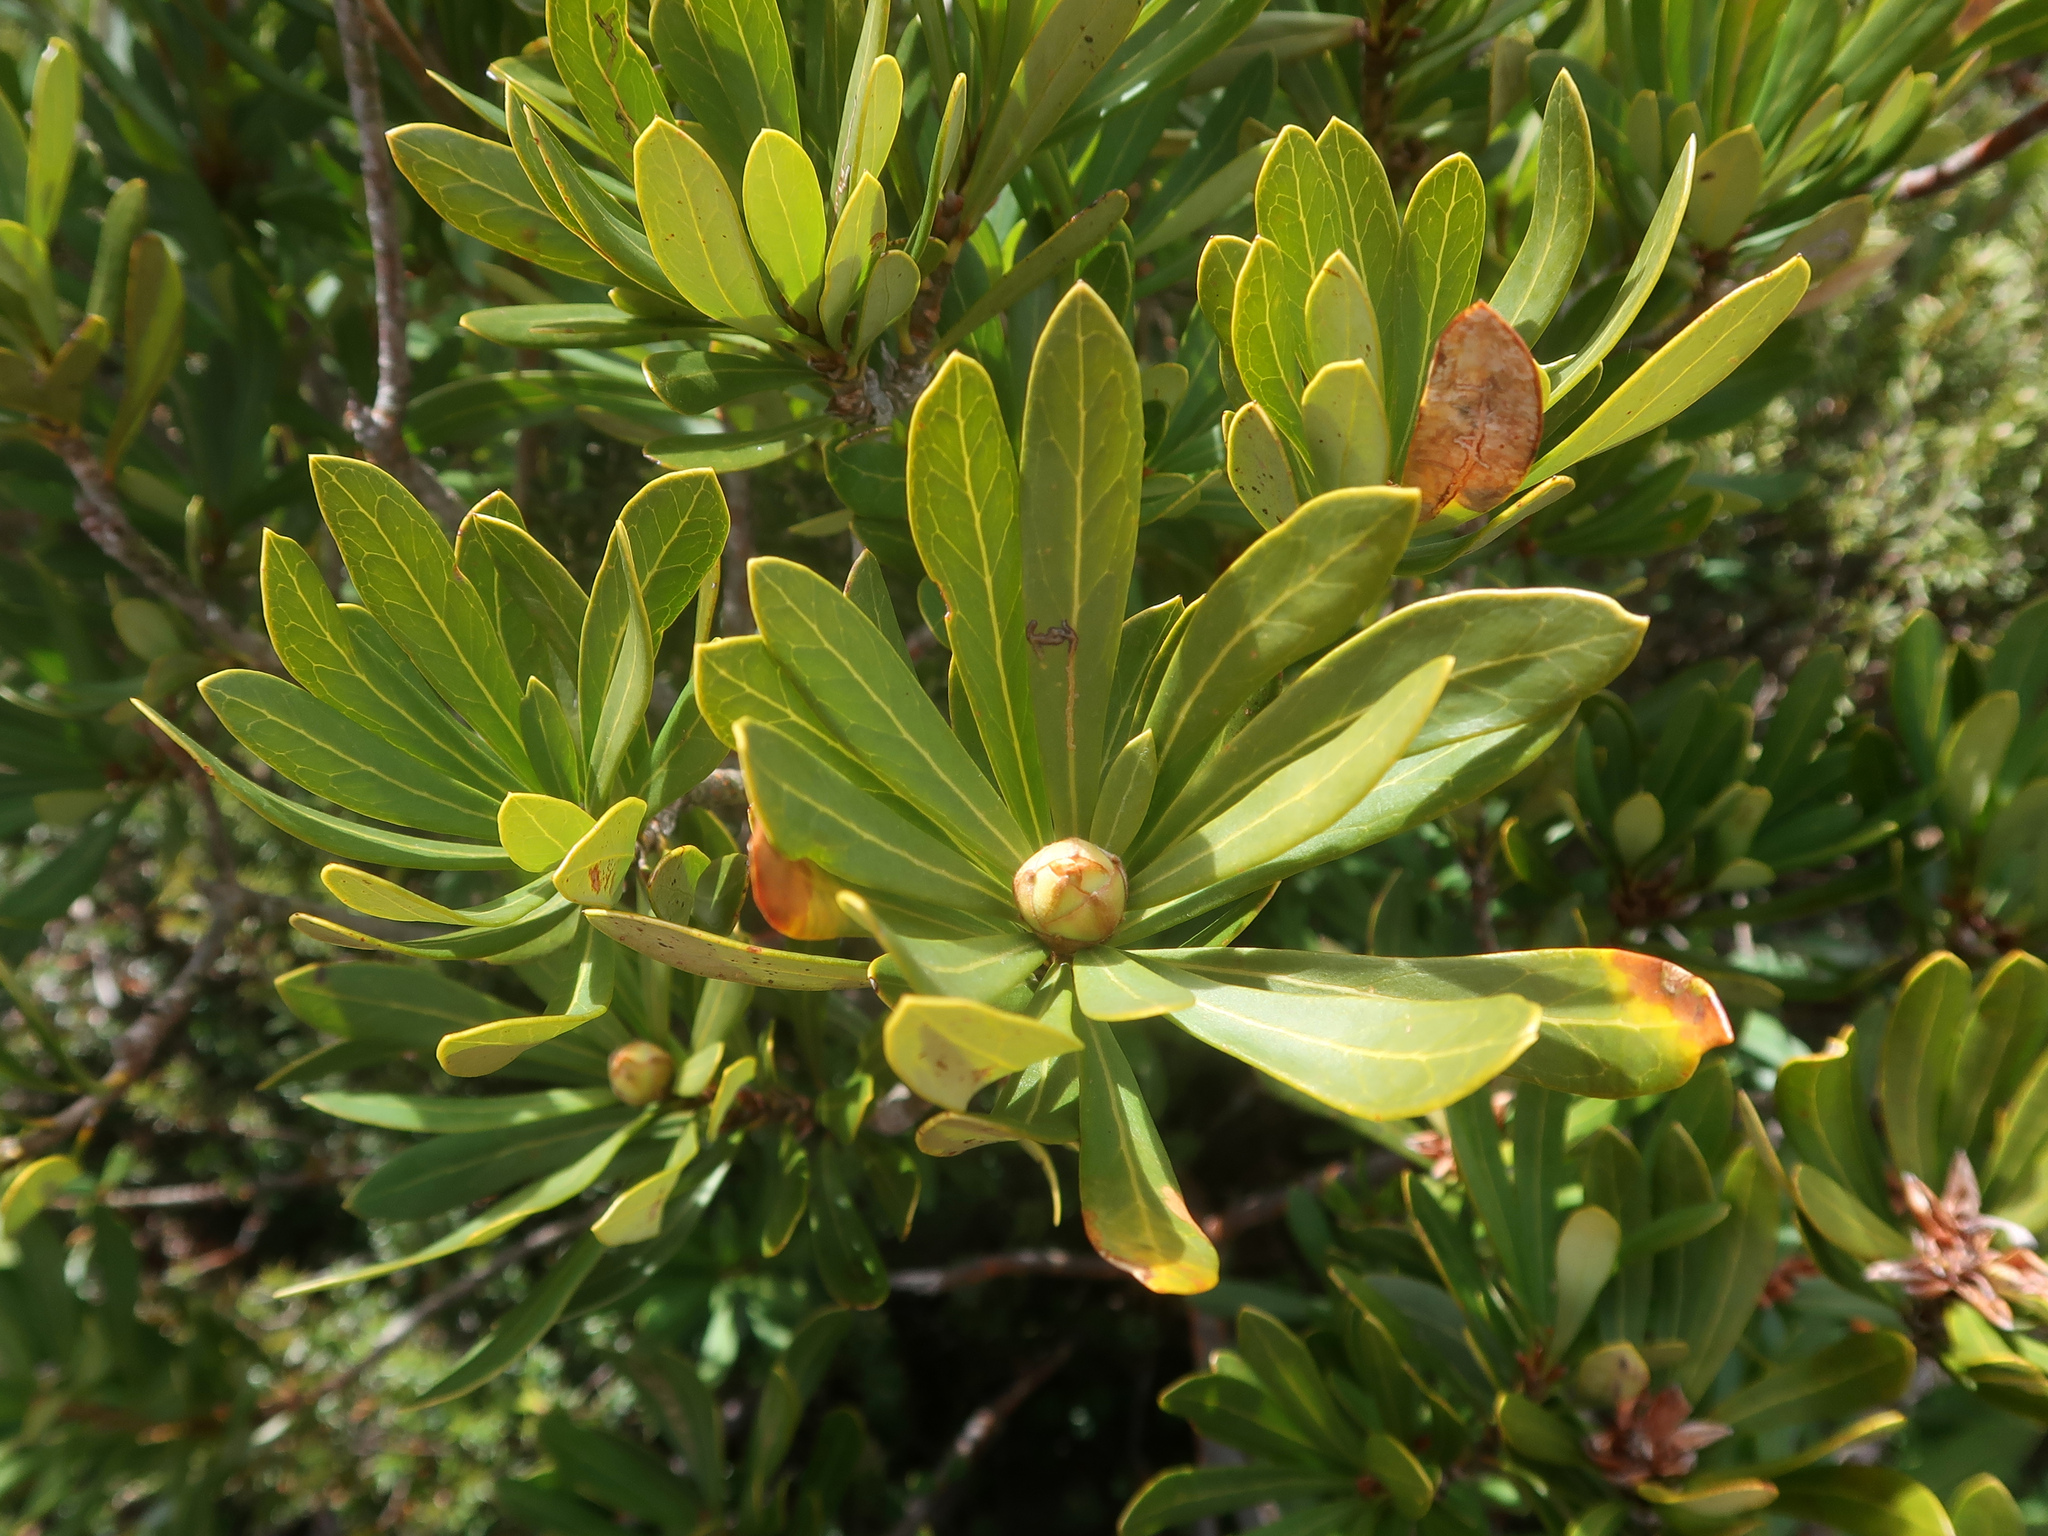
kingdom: Plantae
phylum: Tracheophyta
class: Magnoliopsida
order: Proteales
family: Proteaceae
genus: Telopea
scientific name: Telopea truncata
